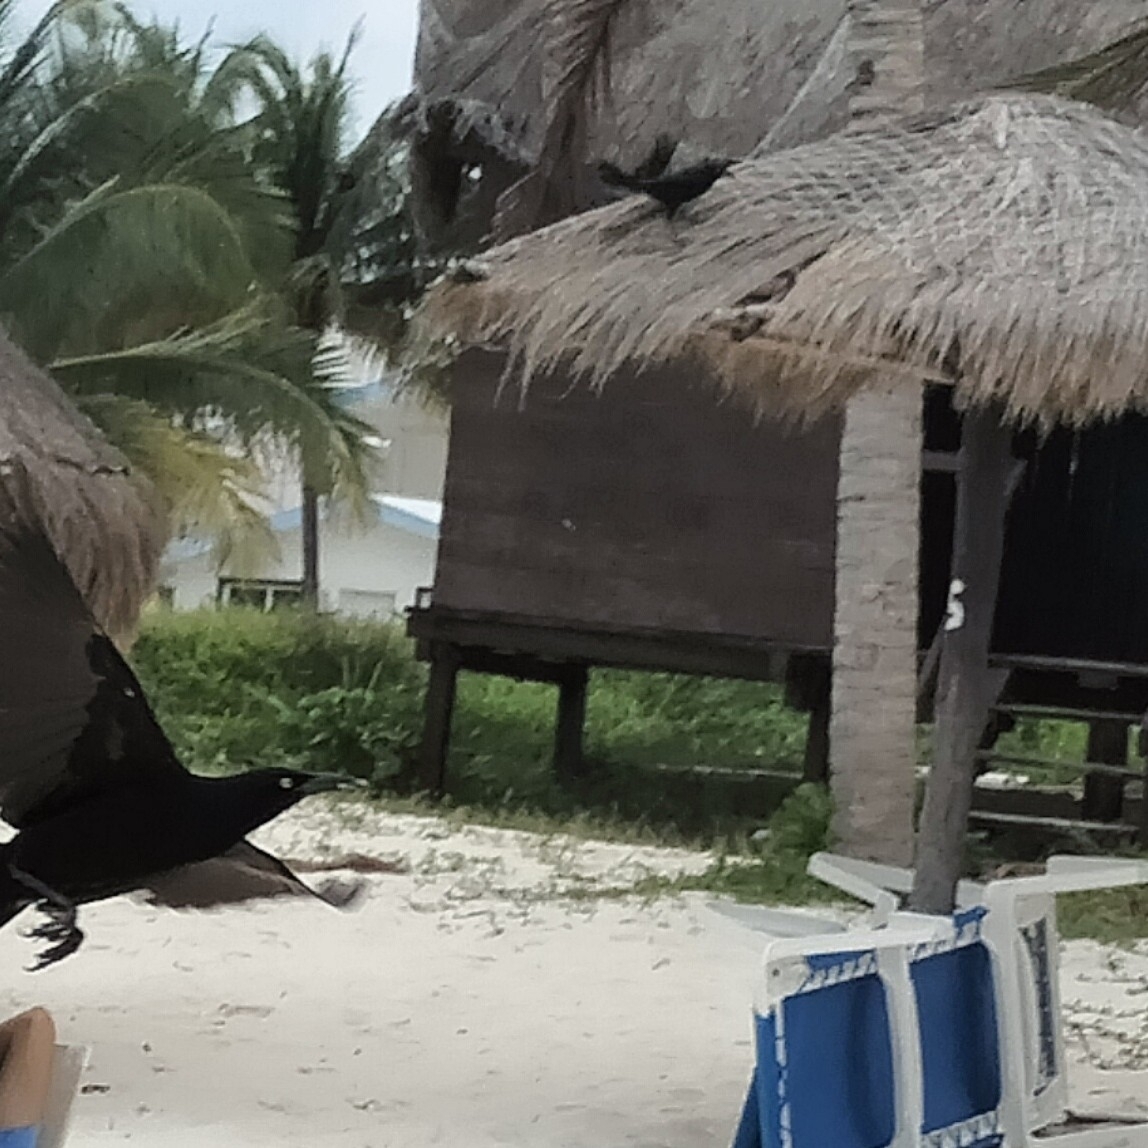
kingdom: Animalia
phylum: Chordata
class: Aves
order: Passeriformes
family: Icteridae
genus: Quiscalus
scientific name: Quiscalus mexicanus
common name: Great-tailed grackle
